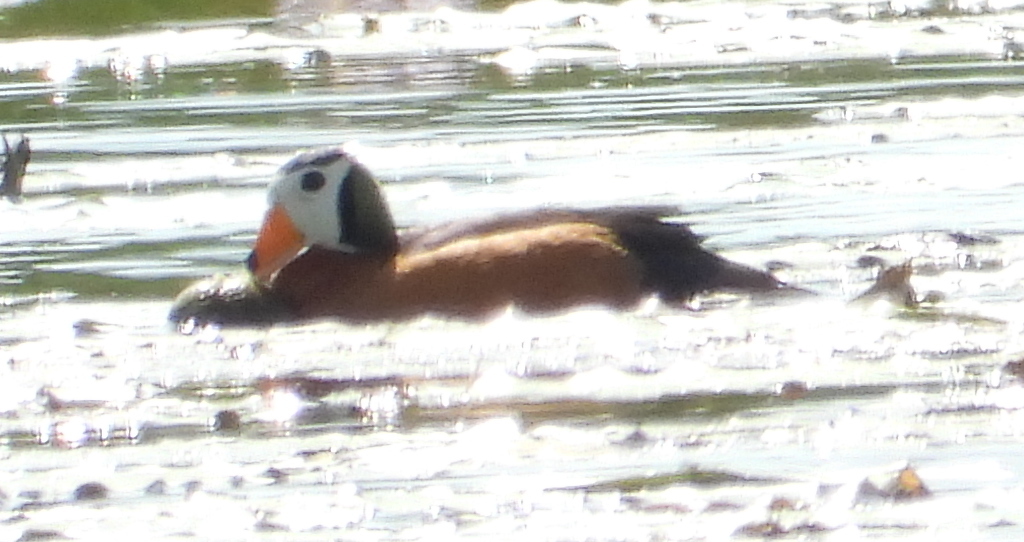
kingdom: Animalia
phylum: Chordata
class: Aves
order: Anseriformes
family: Anatidae
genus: Nettapus
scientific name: Nettapus auritus
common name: African pygmy-goose
